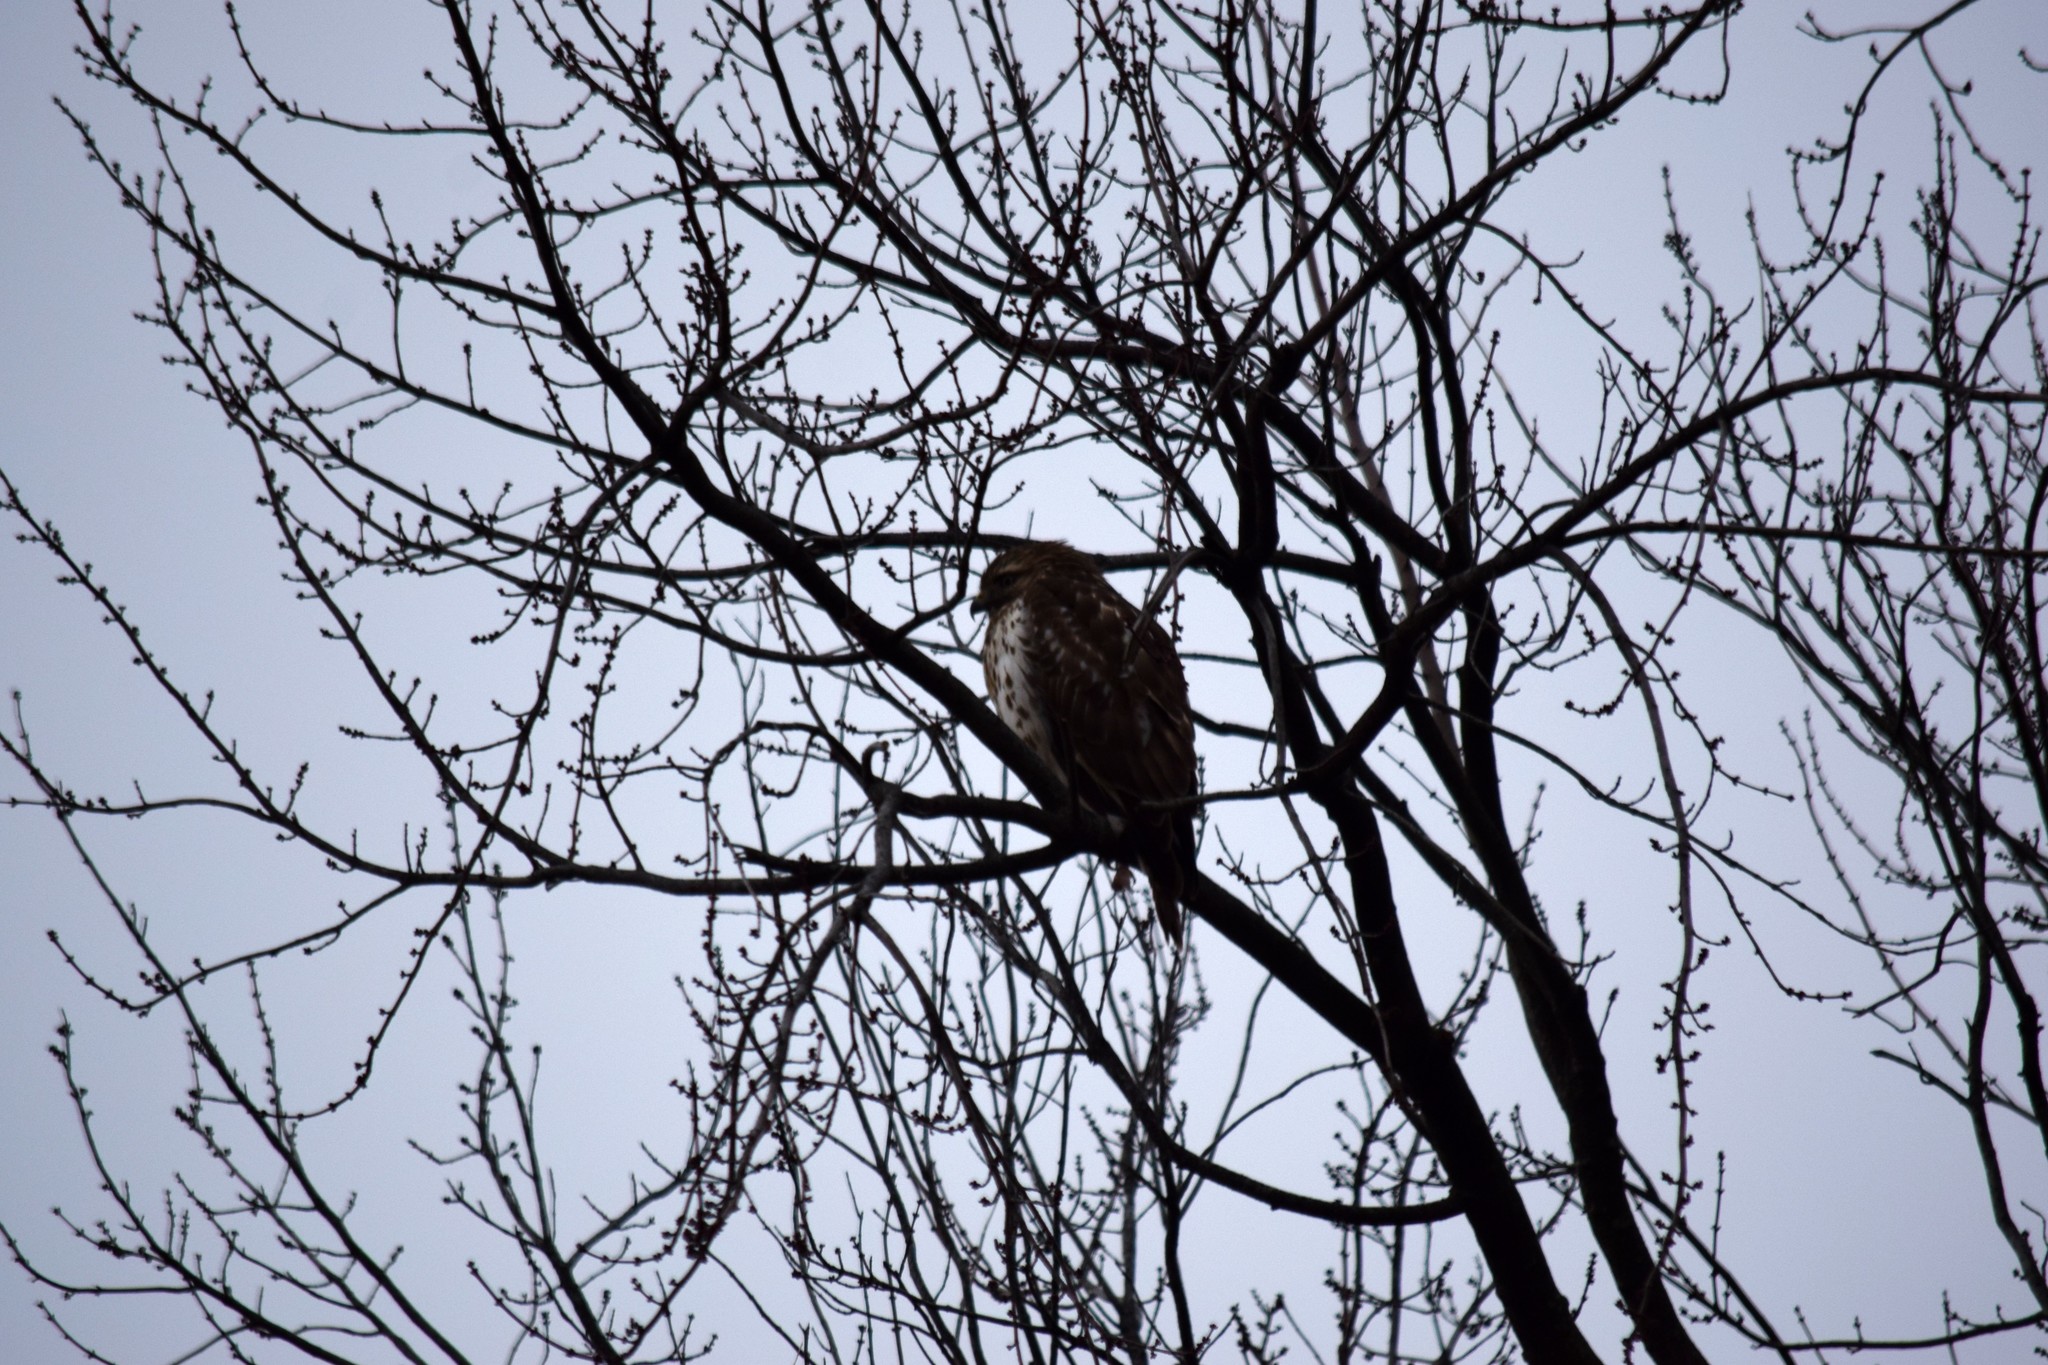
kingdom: Animalia
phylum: Chordata
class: Aves
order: Accipitriformes
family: Accipitridae
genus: Buteo
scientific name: Buteo lineatus
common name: Red-shouldered hawk
